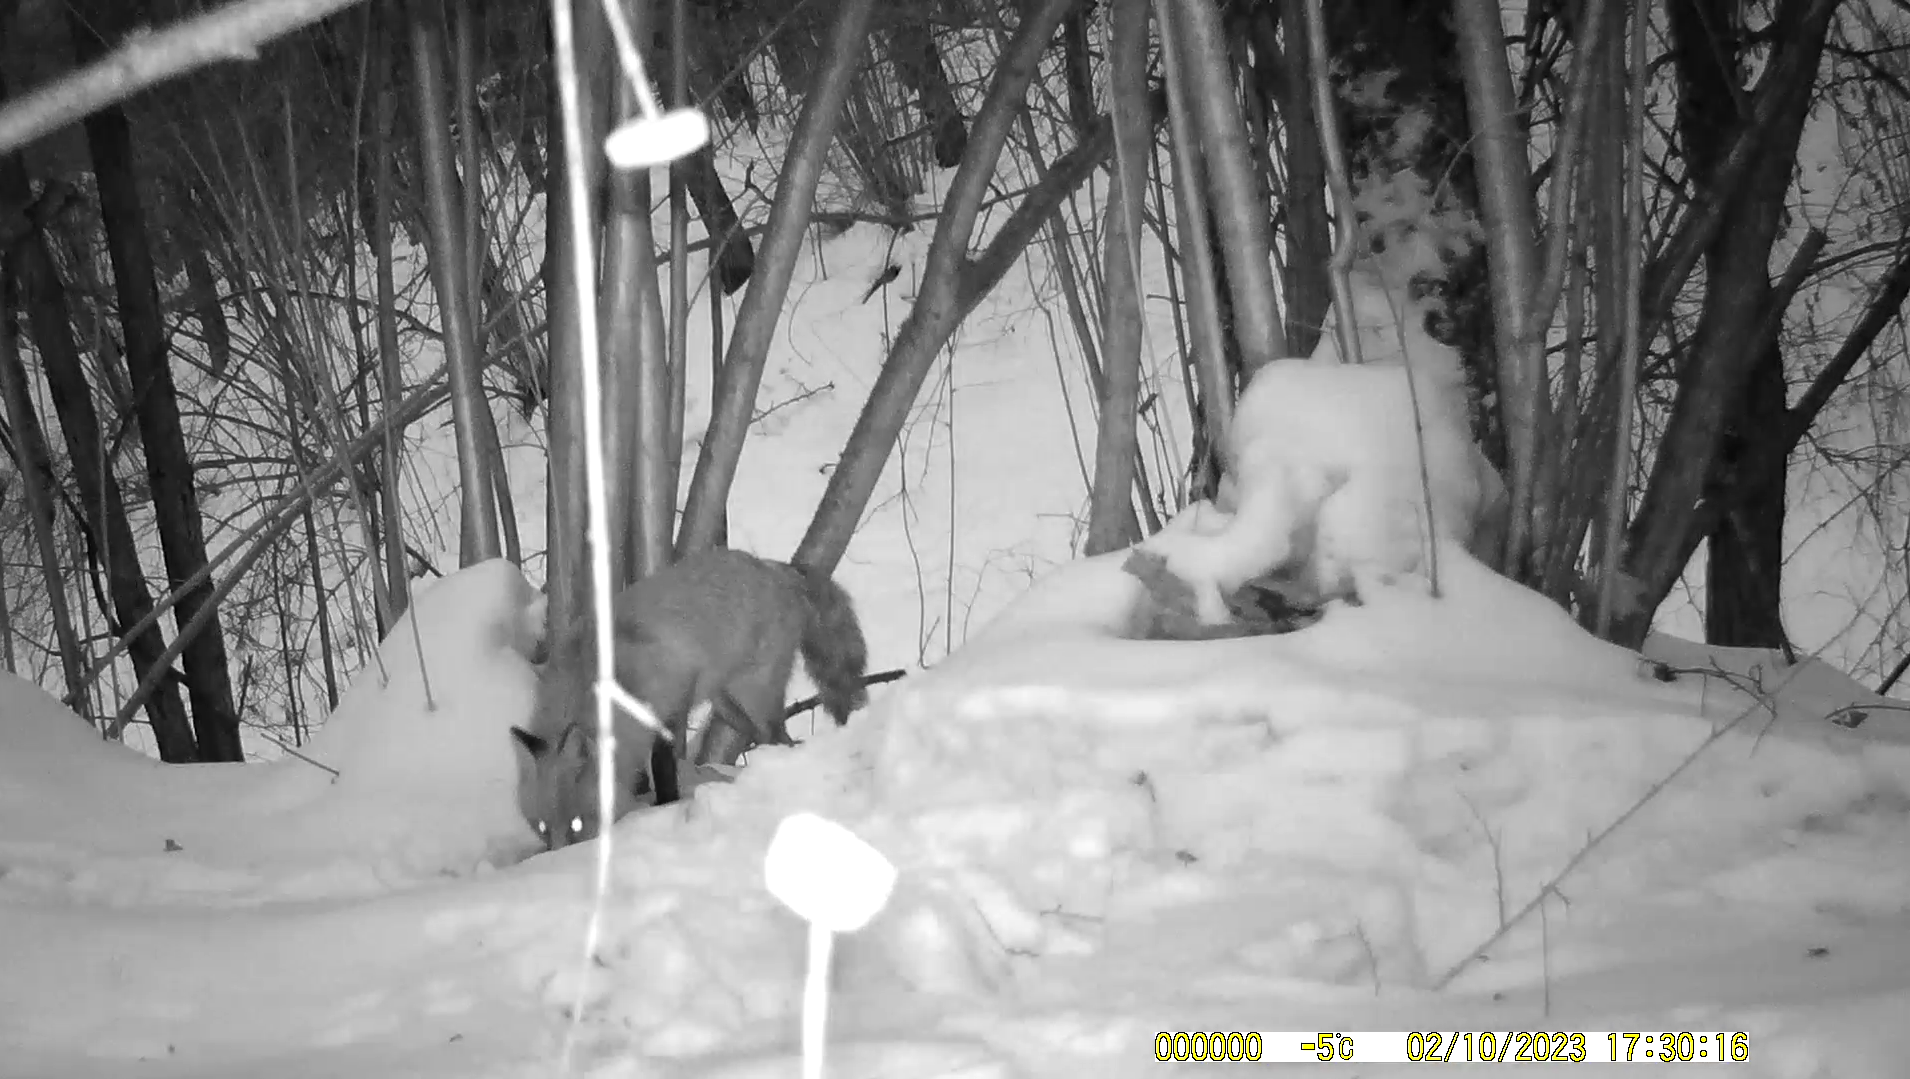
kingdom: Animalia
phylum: Chordata
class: Mammalia
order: Carnivora
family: Canidae
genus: Vulpes
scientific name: Vulpes vulpes
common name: Red fox
